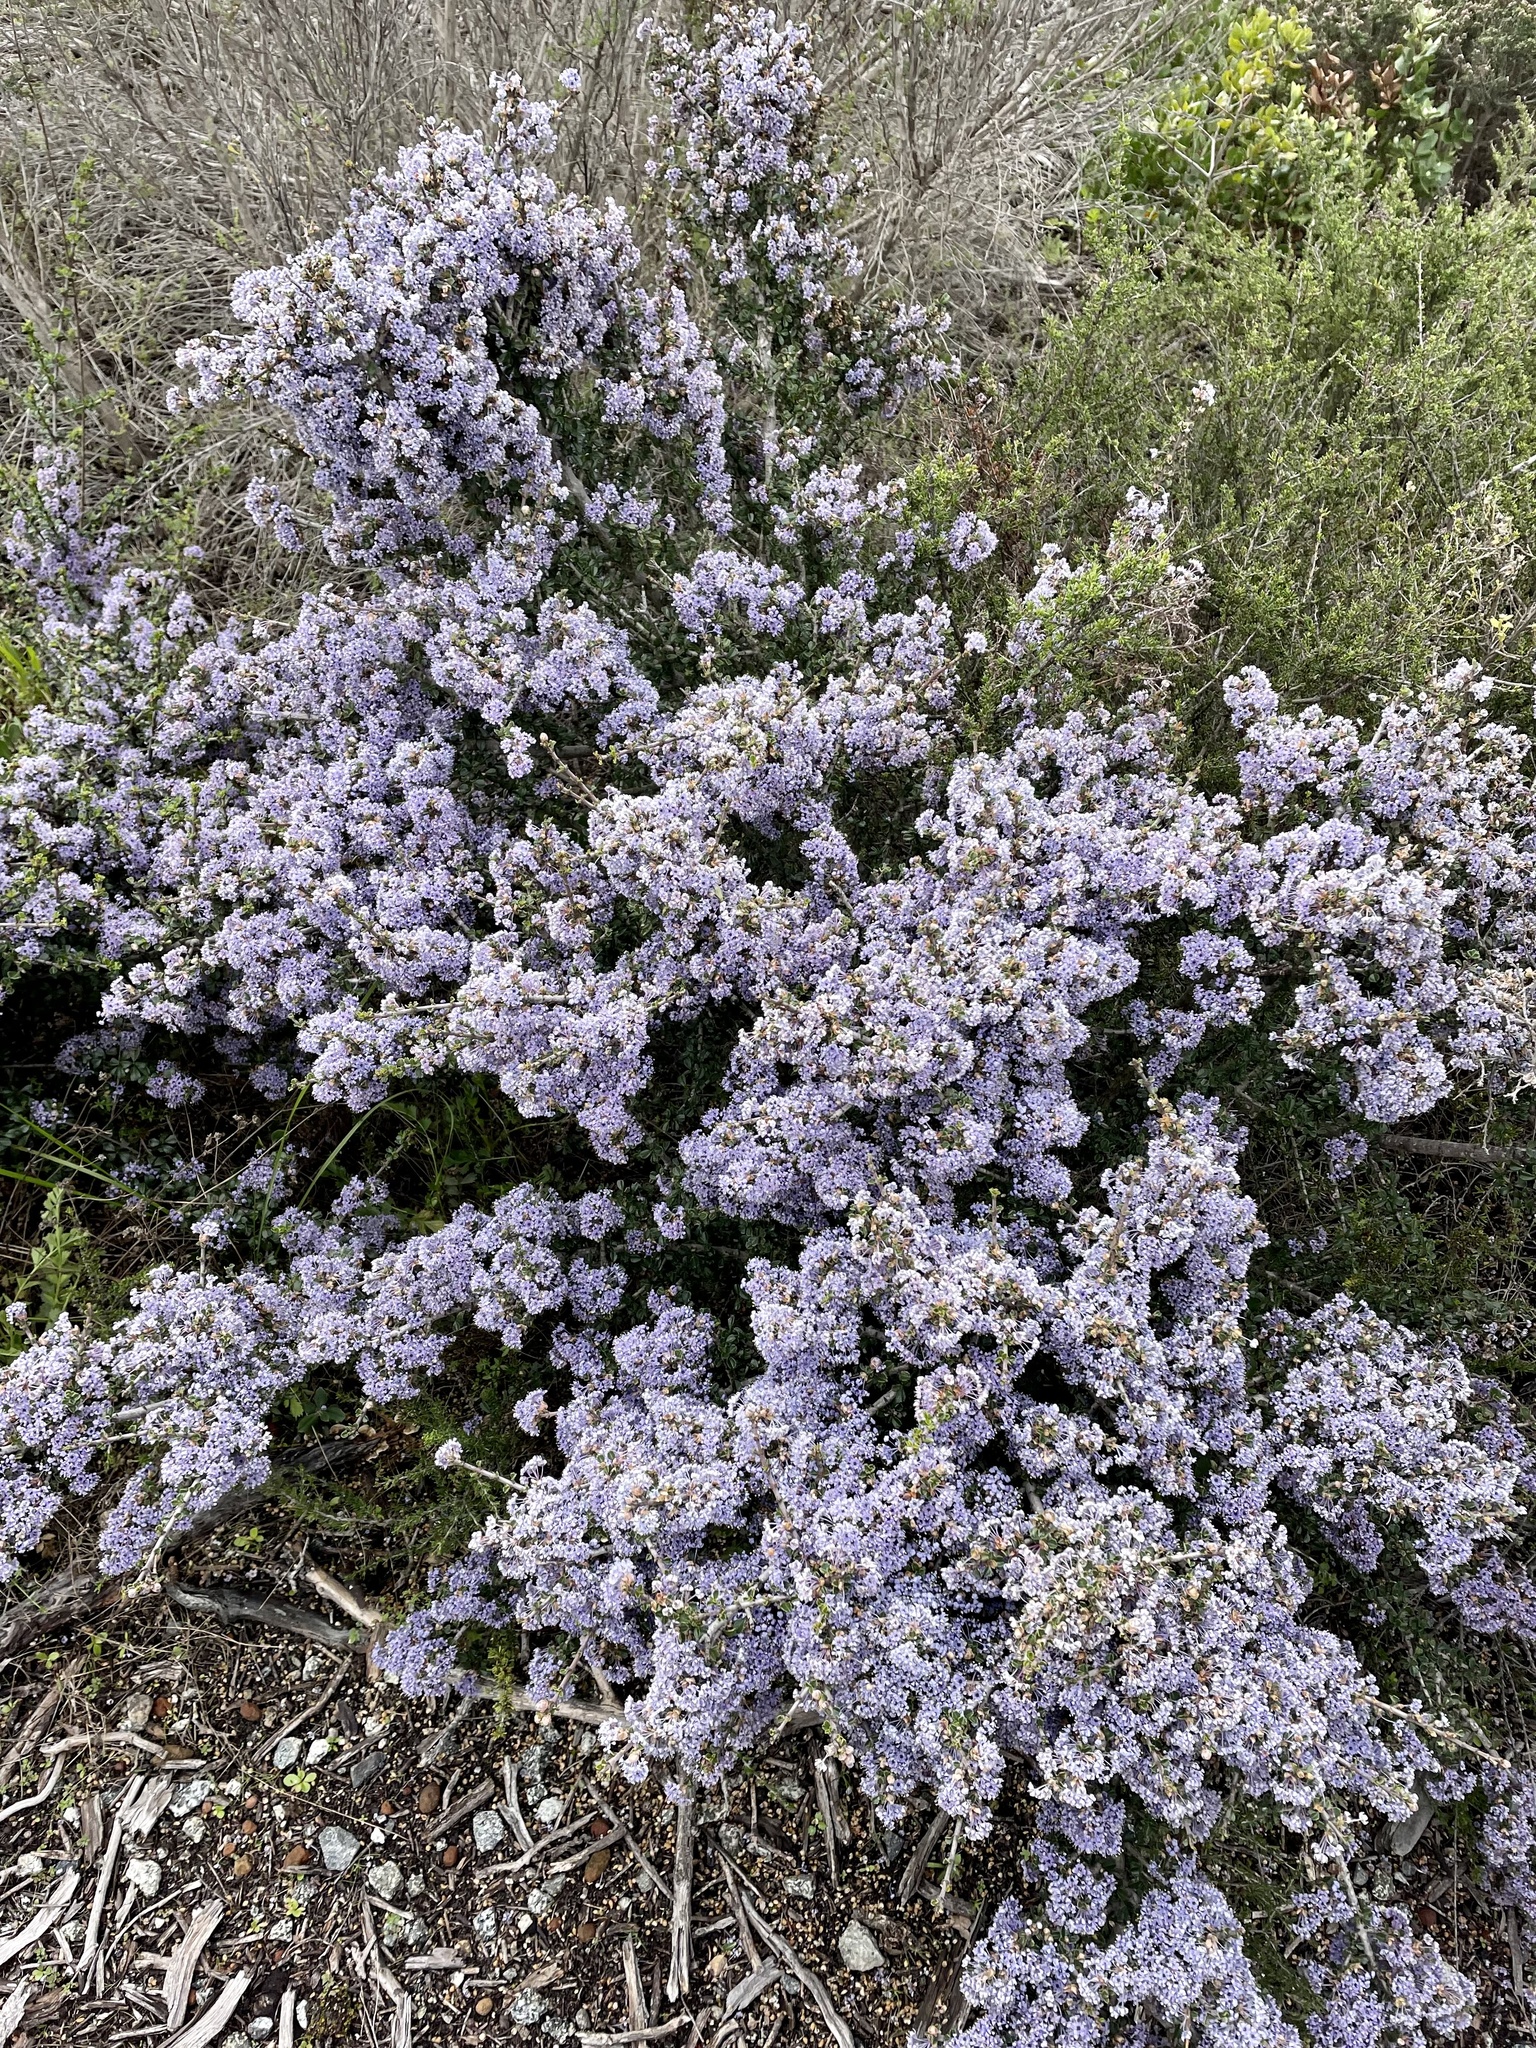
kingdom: Plantae
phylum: Tracheophyta
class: Magnoliopsida
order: Rosales
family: Rhamnaceae
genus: Ceanothus
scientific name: Ceanothus cuneatus
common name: Cuneate ceanothus
